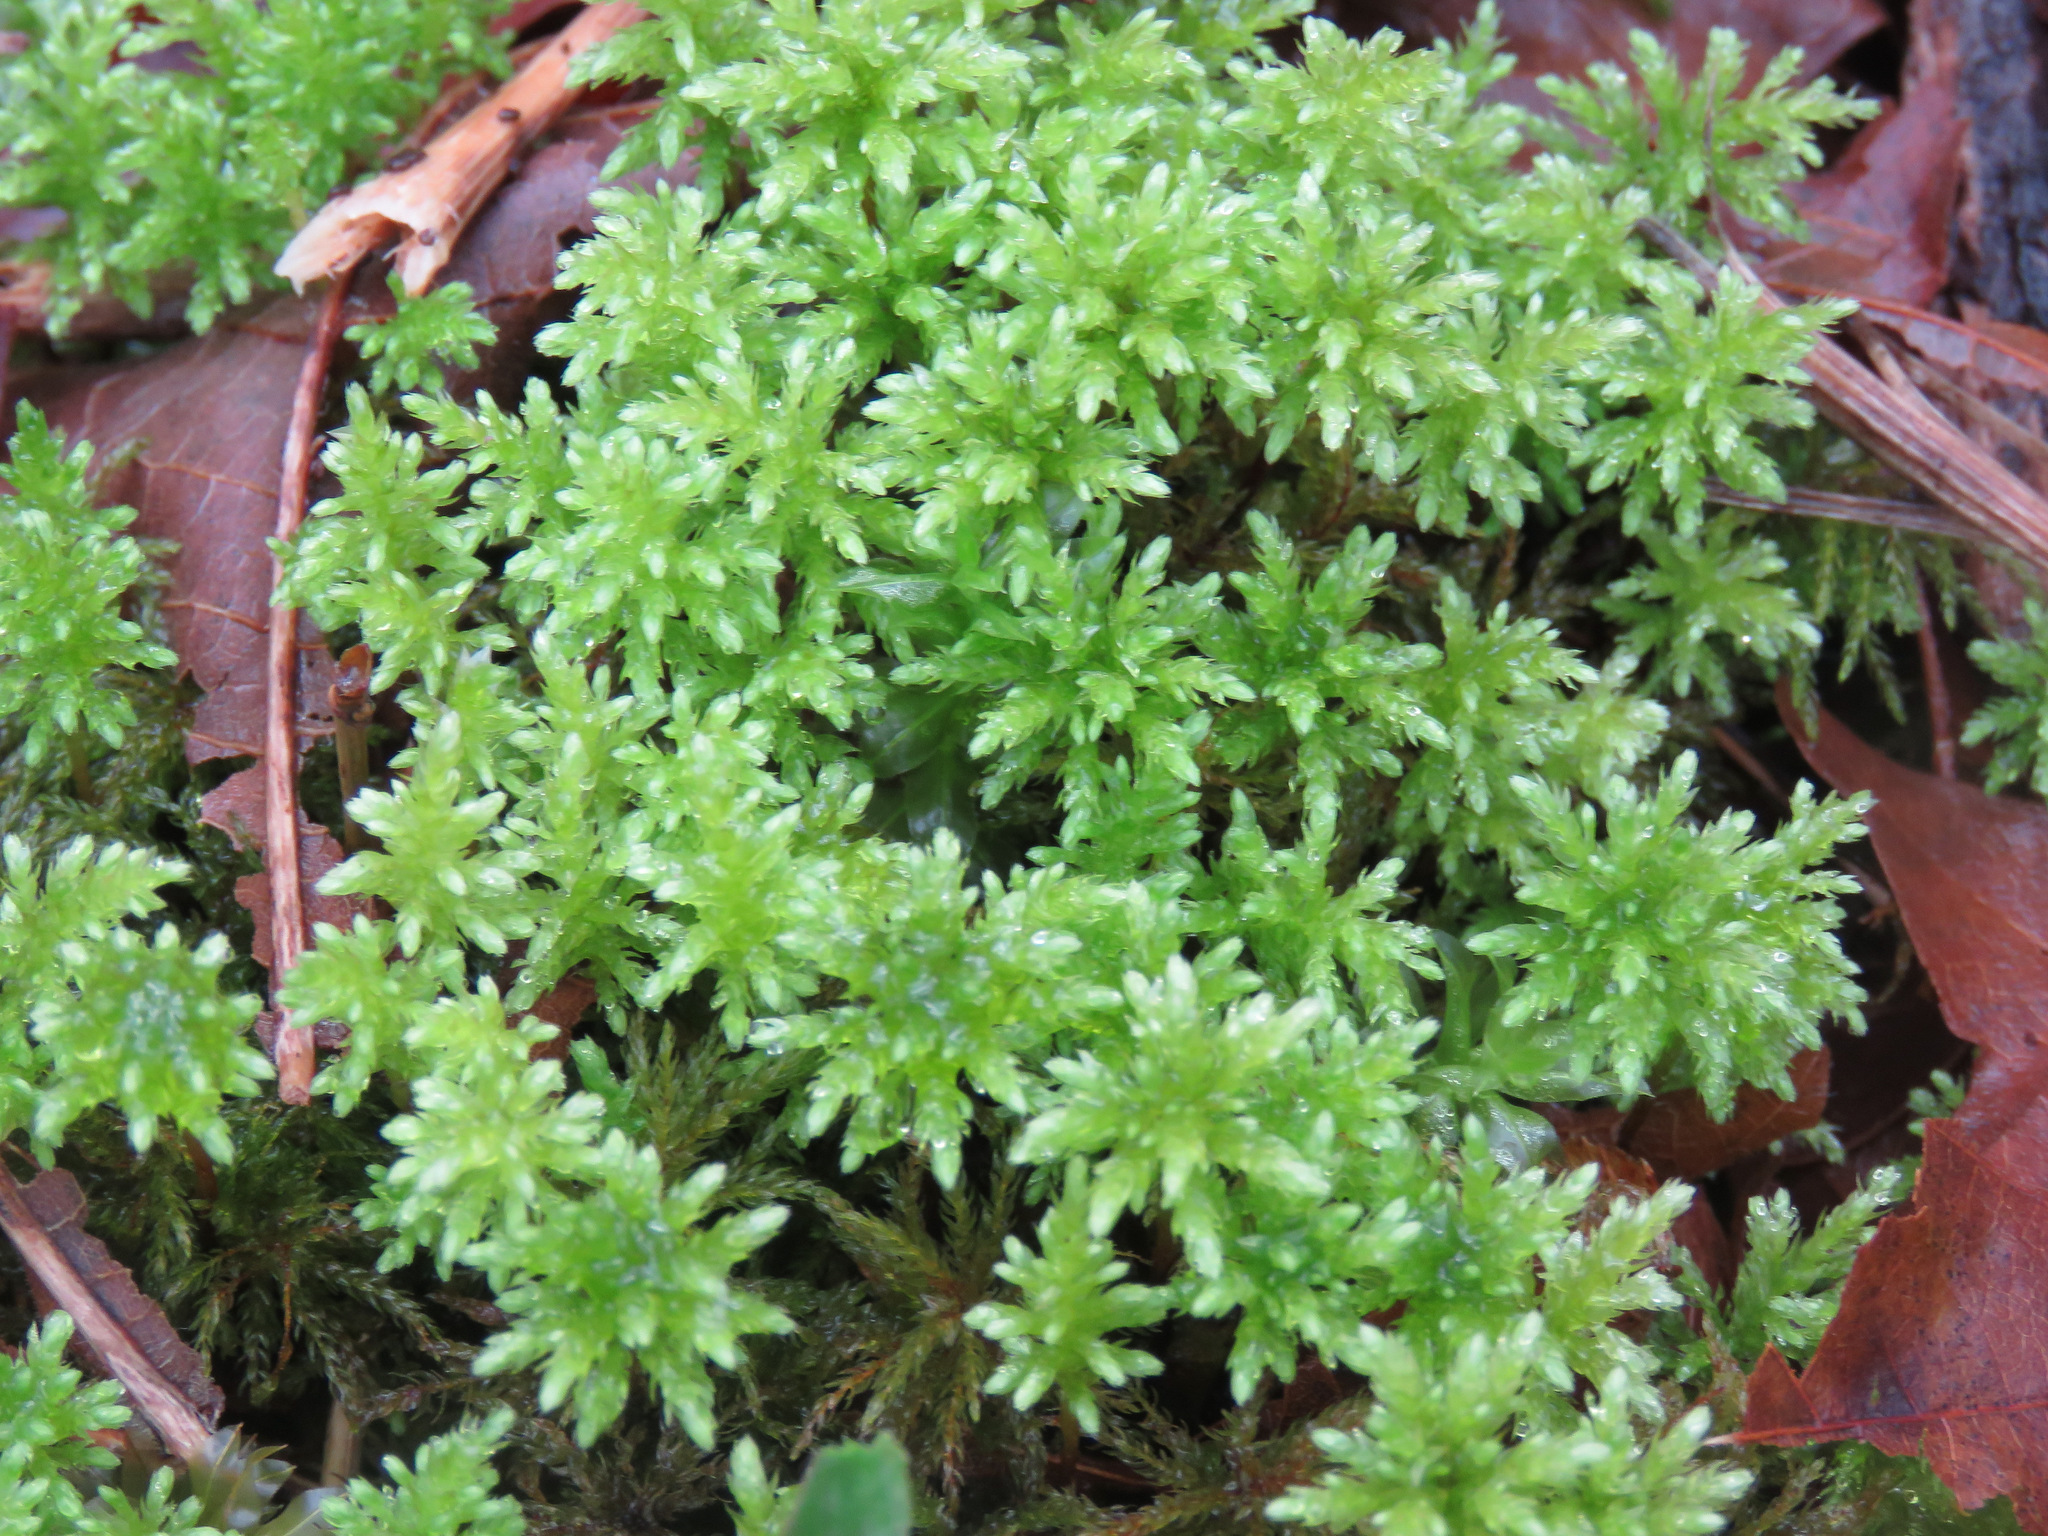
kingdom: Plantae
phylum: Bryophyta
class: Bryopsida
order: Bryales
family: Mniaceae
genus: Leucolepis
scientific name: Leucolepis acanthoneura
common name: Leucolepis umbrella moss
